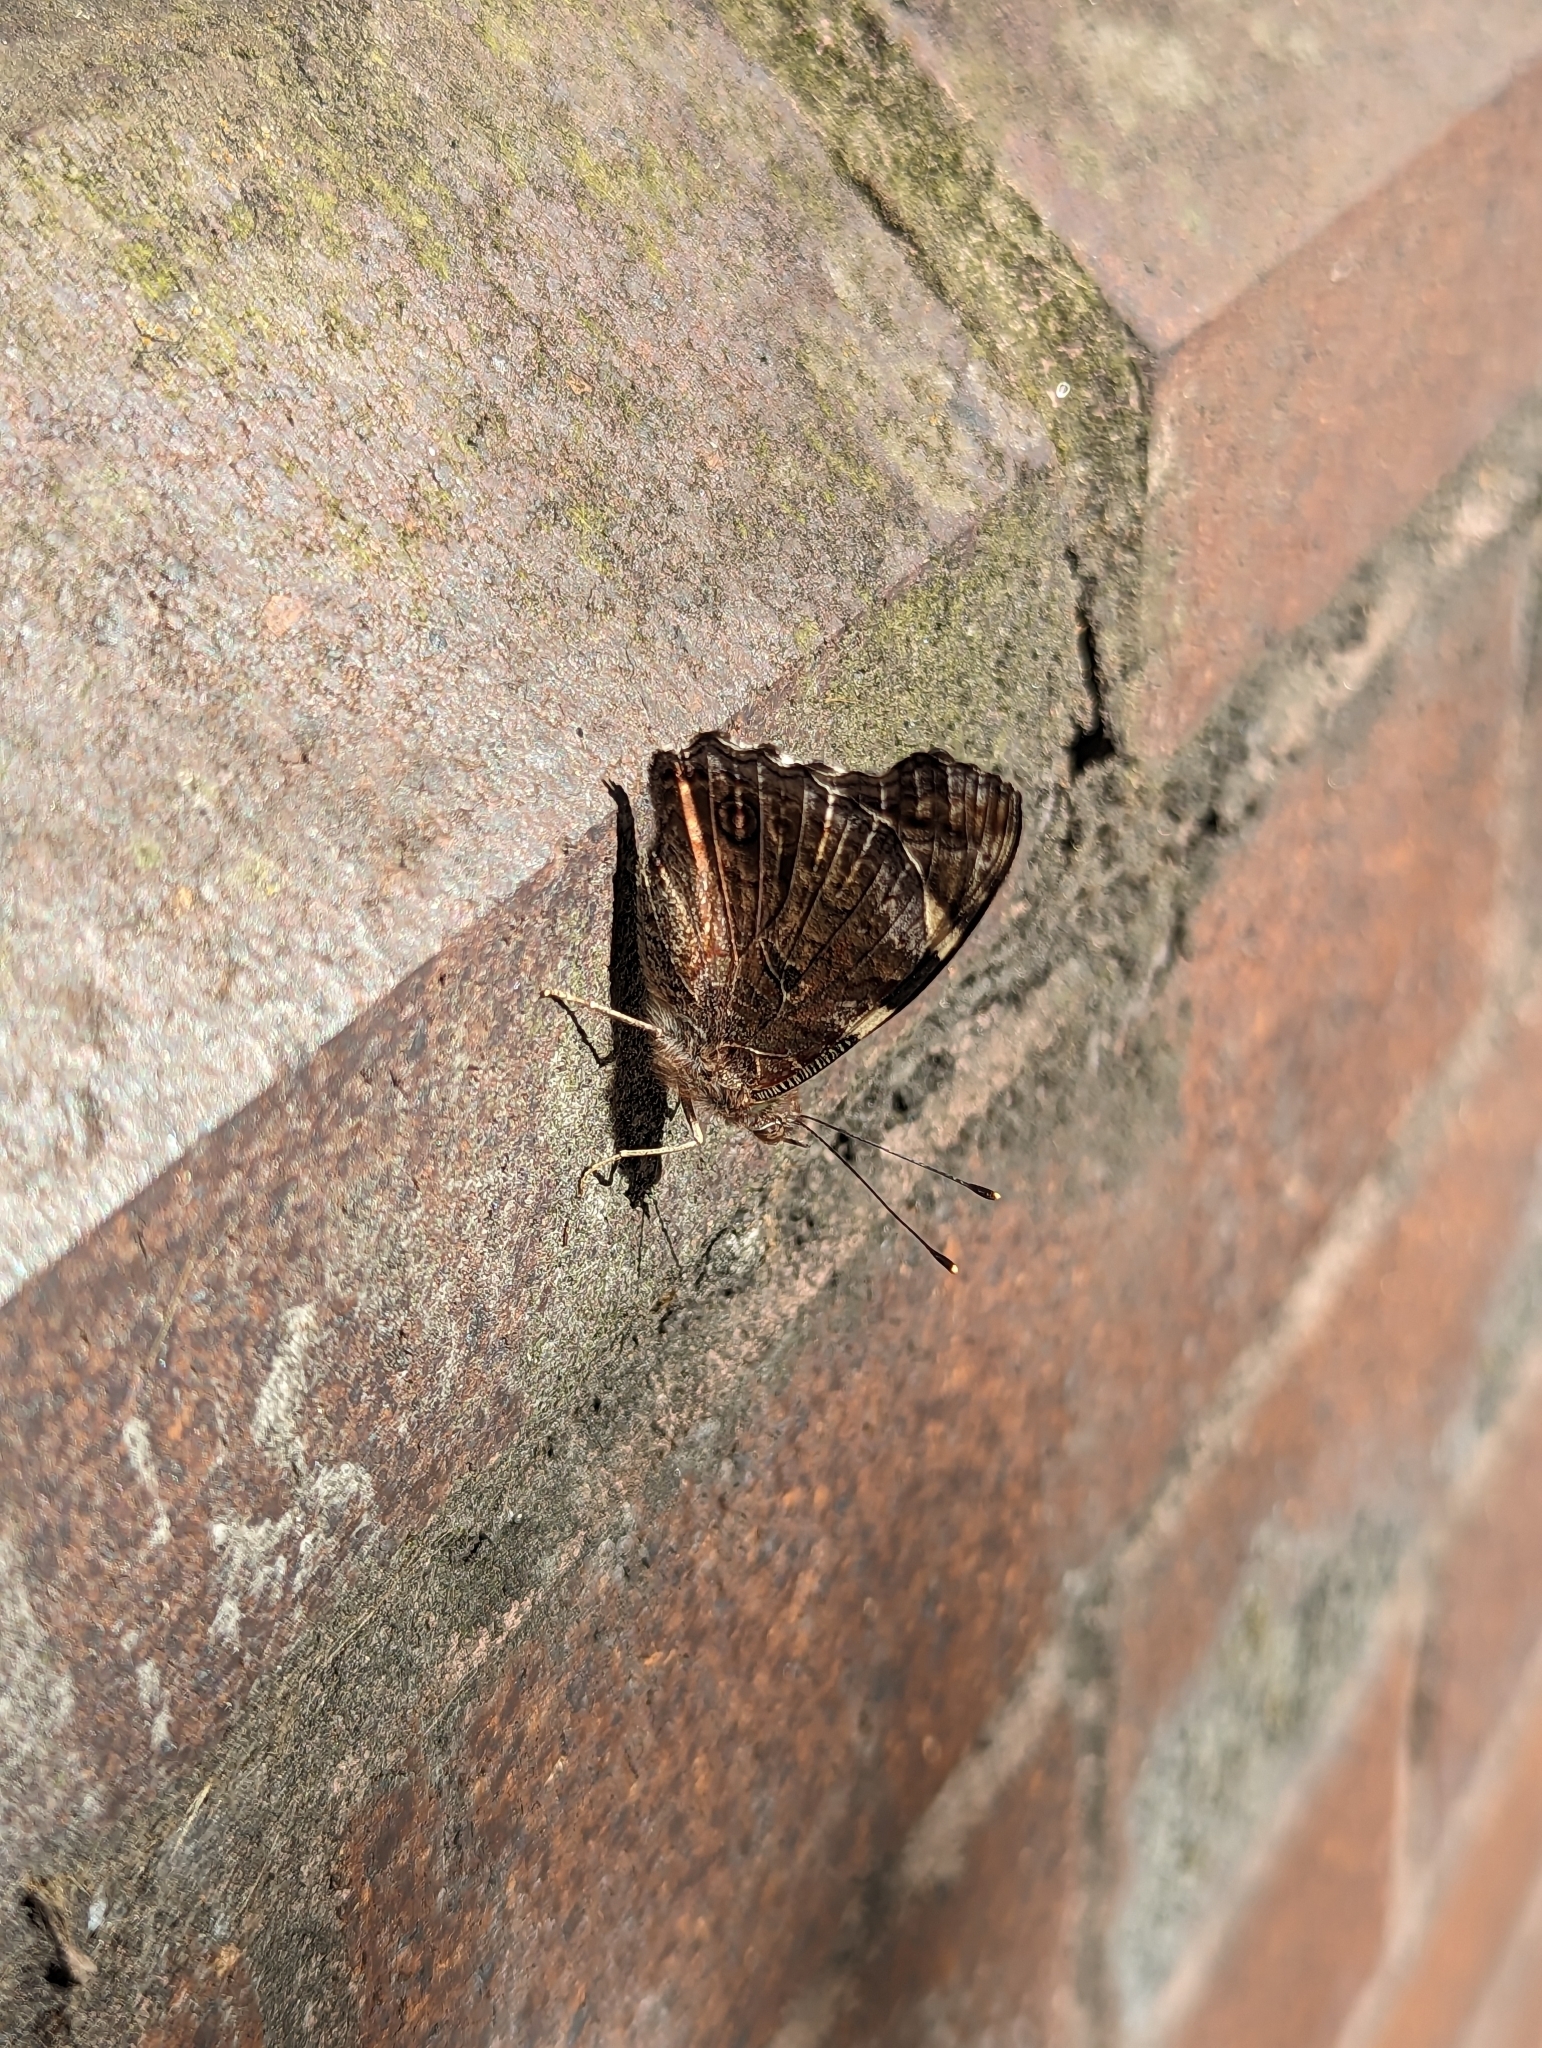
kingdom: Animalia
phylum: Arthropoda
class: Insecta
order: Lepidoptera
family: Nymphalidae
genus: Vanessa
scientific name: Vanessa itea
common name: Yellow admiral
